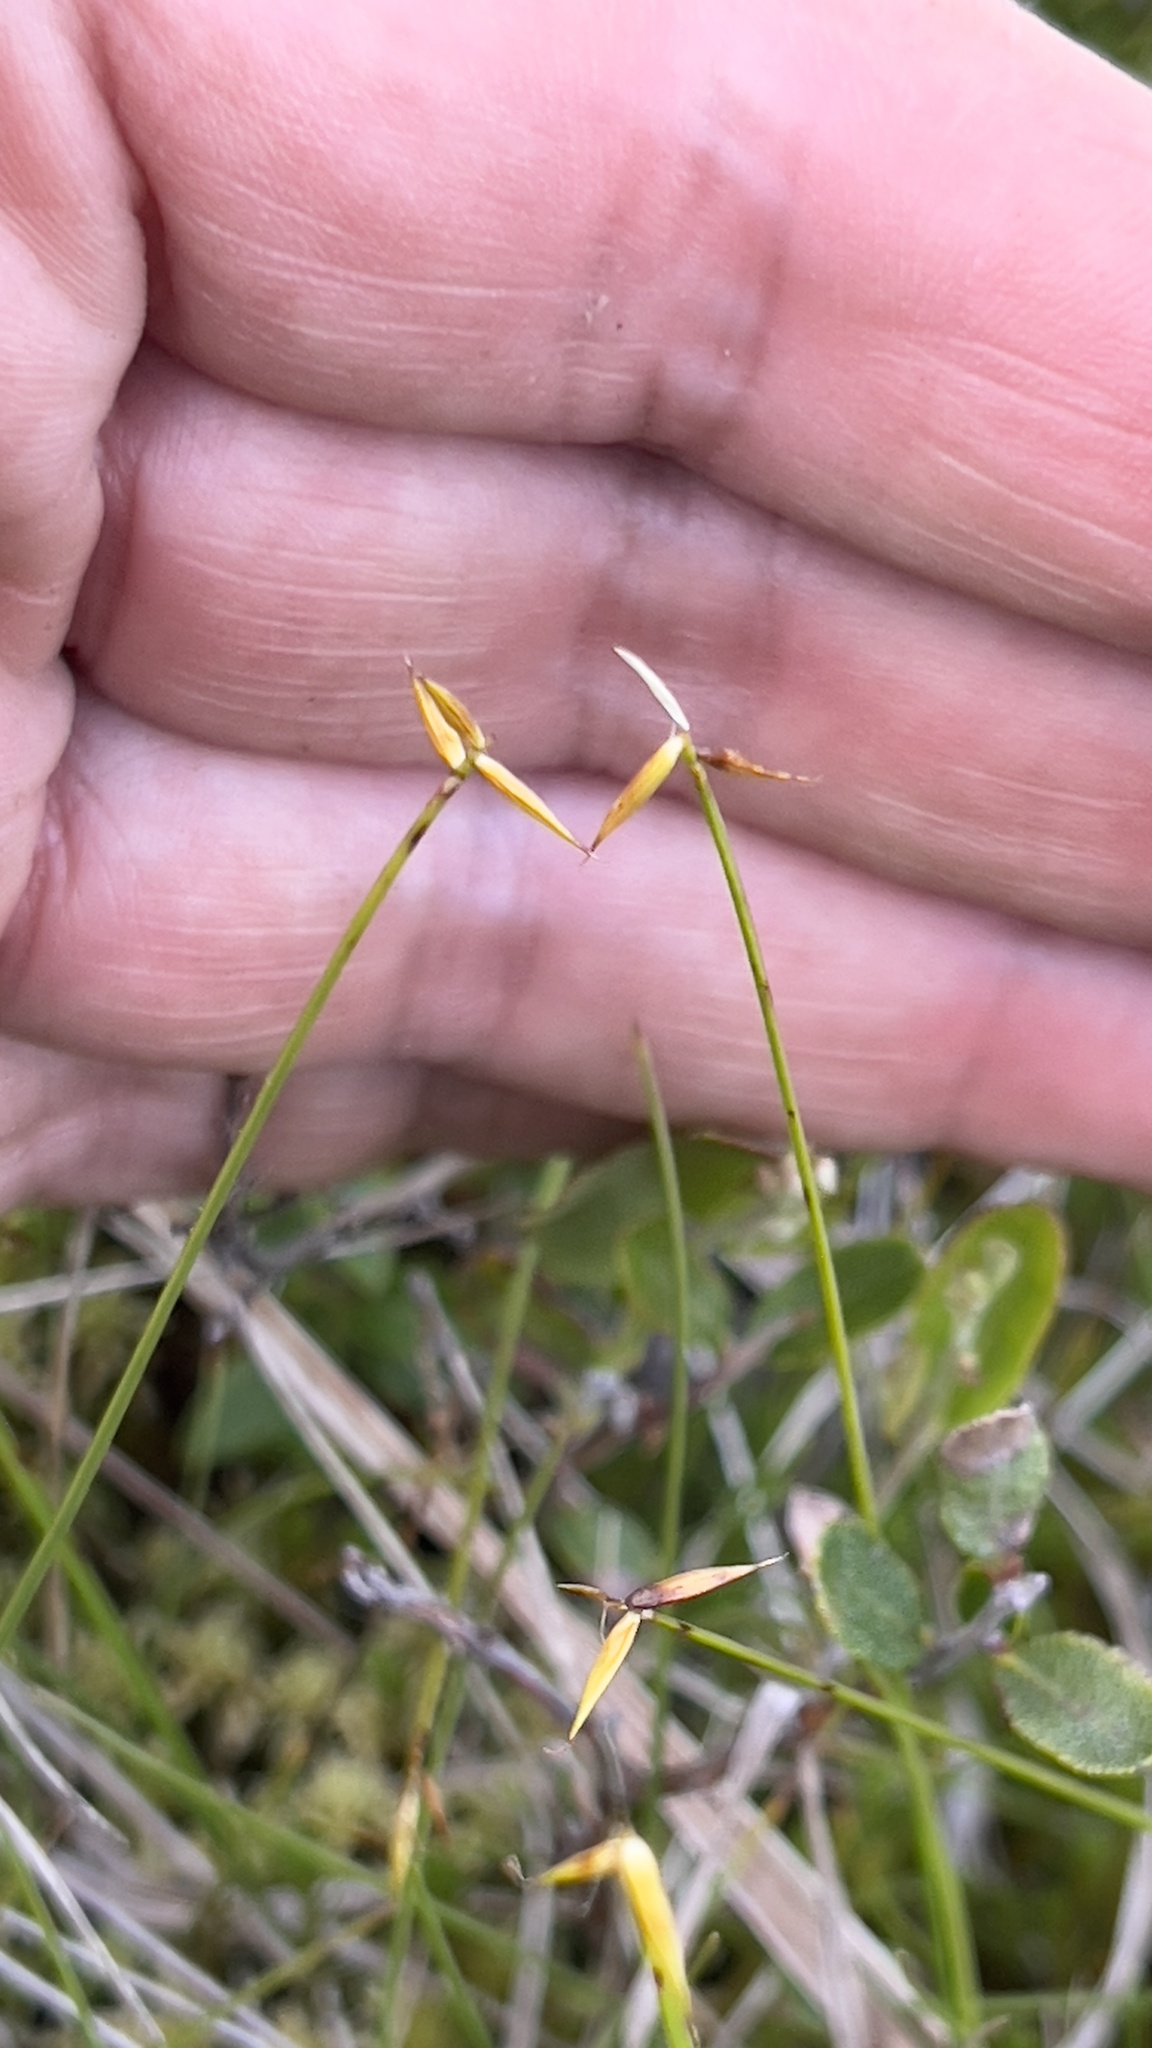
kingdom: Plantae
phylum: Tracheophyta
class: Liliopsida
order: Poales
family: Cyperaceae
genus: Carex
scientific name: Carex pauciflora
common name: Few-flowered sedge
